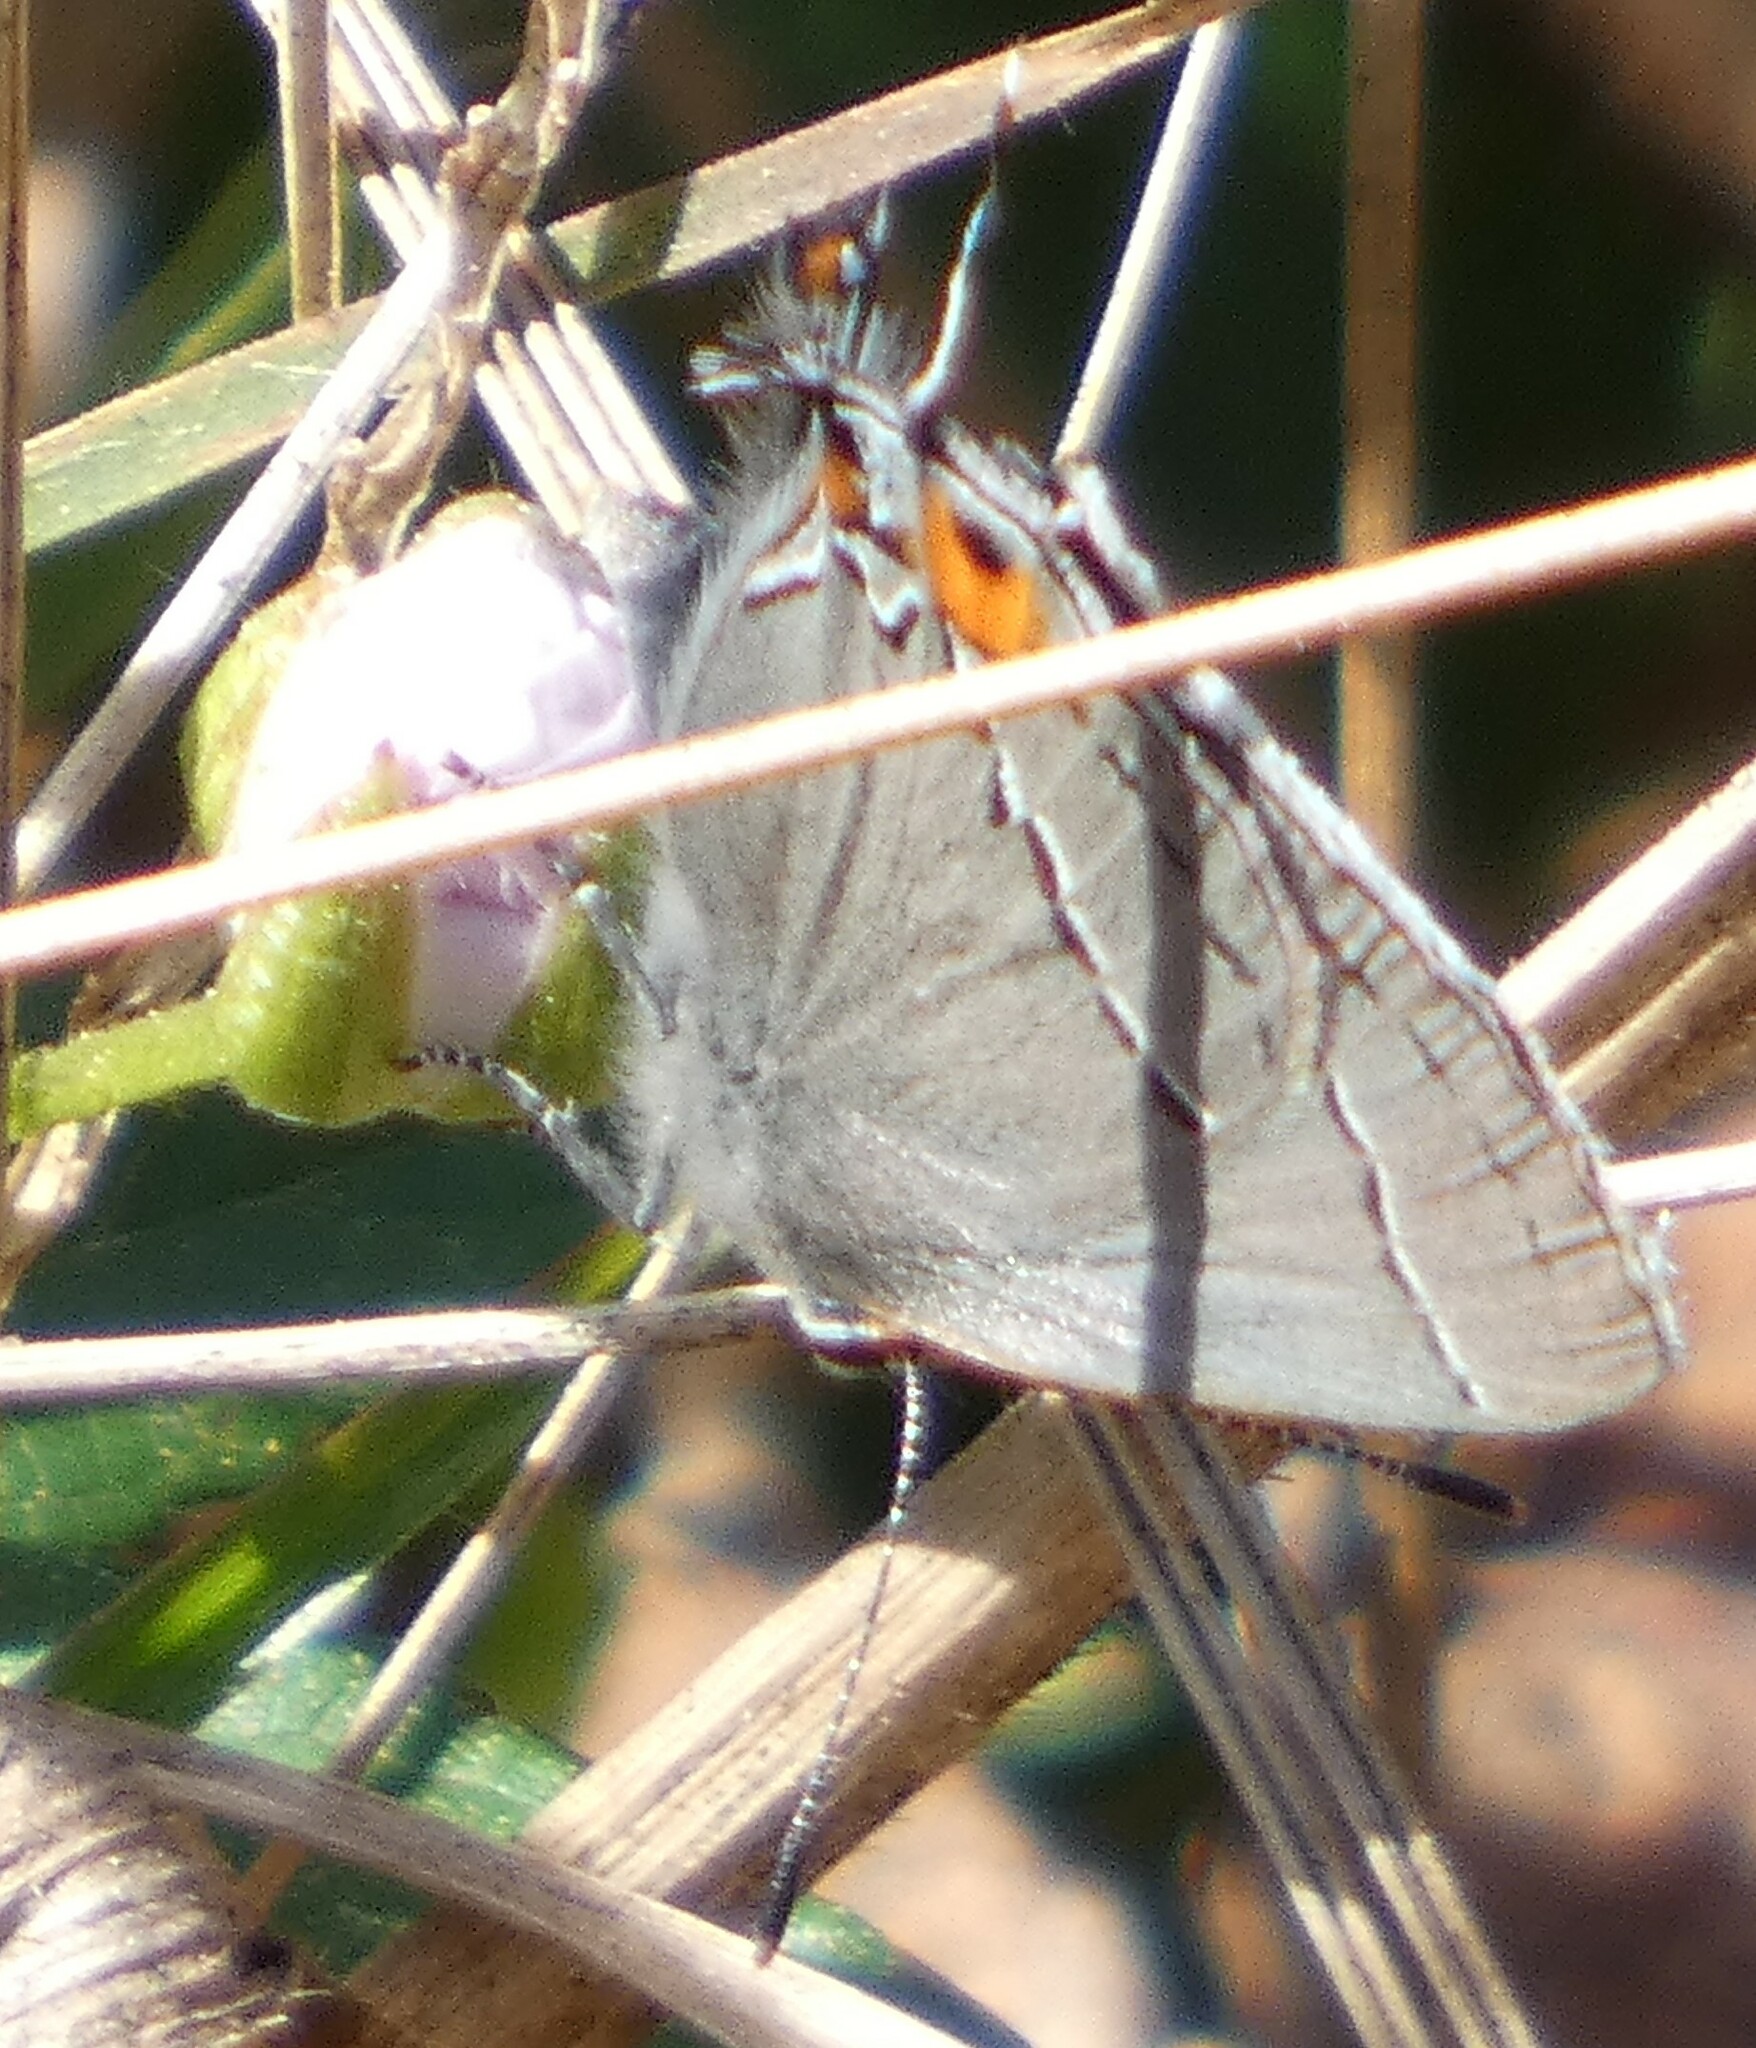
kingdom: Animalia
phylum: Arthropoda
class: Insecta
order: Lepidoptera
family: Lycaenidae
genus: Strymon
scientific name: Strymon melinus
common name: Gray hairstreak
